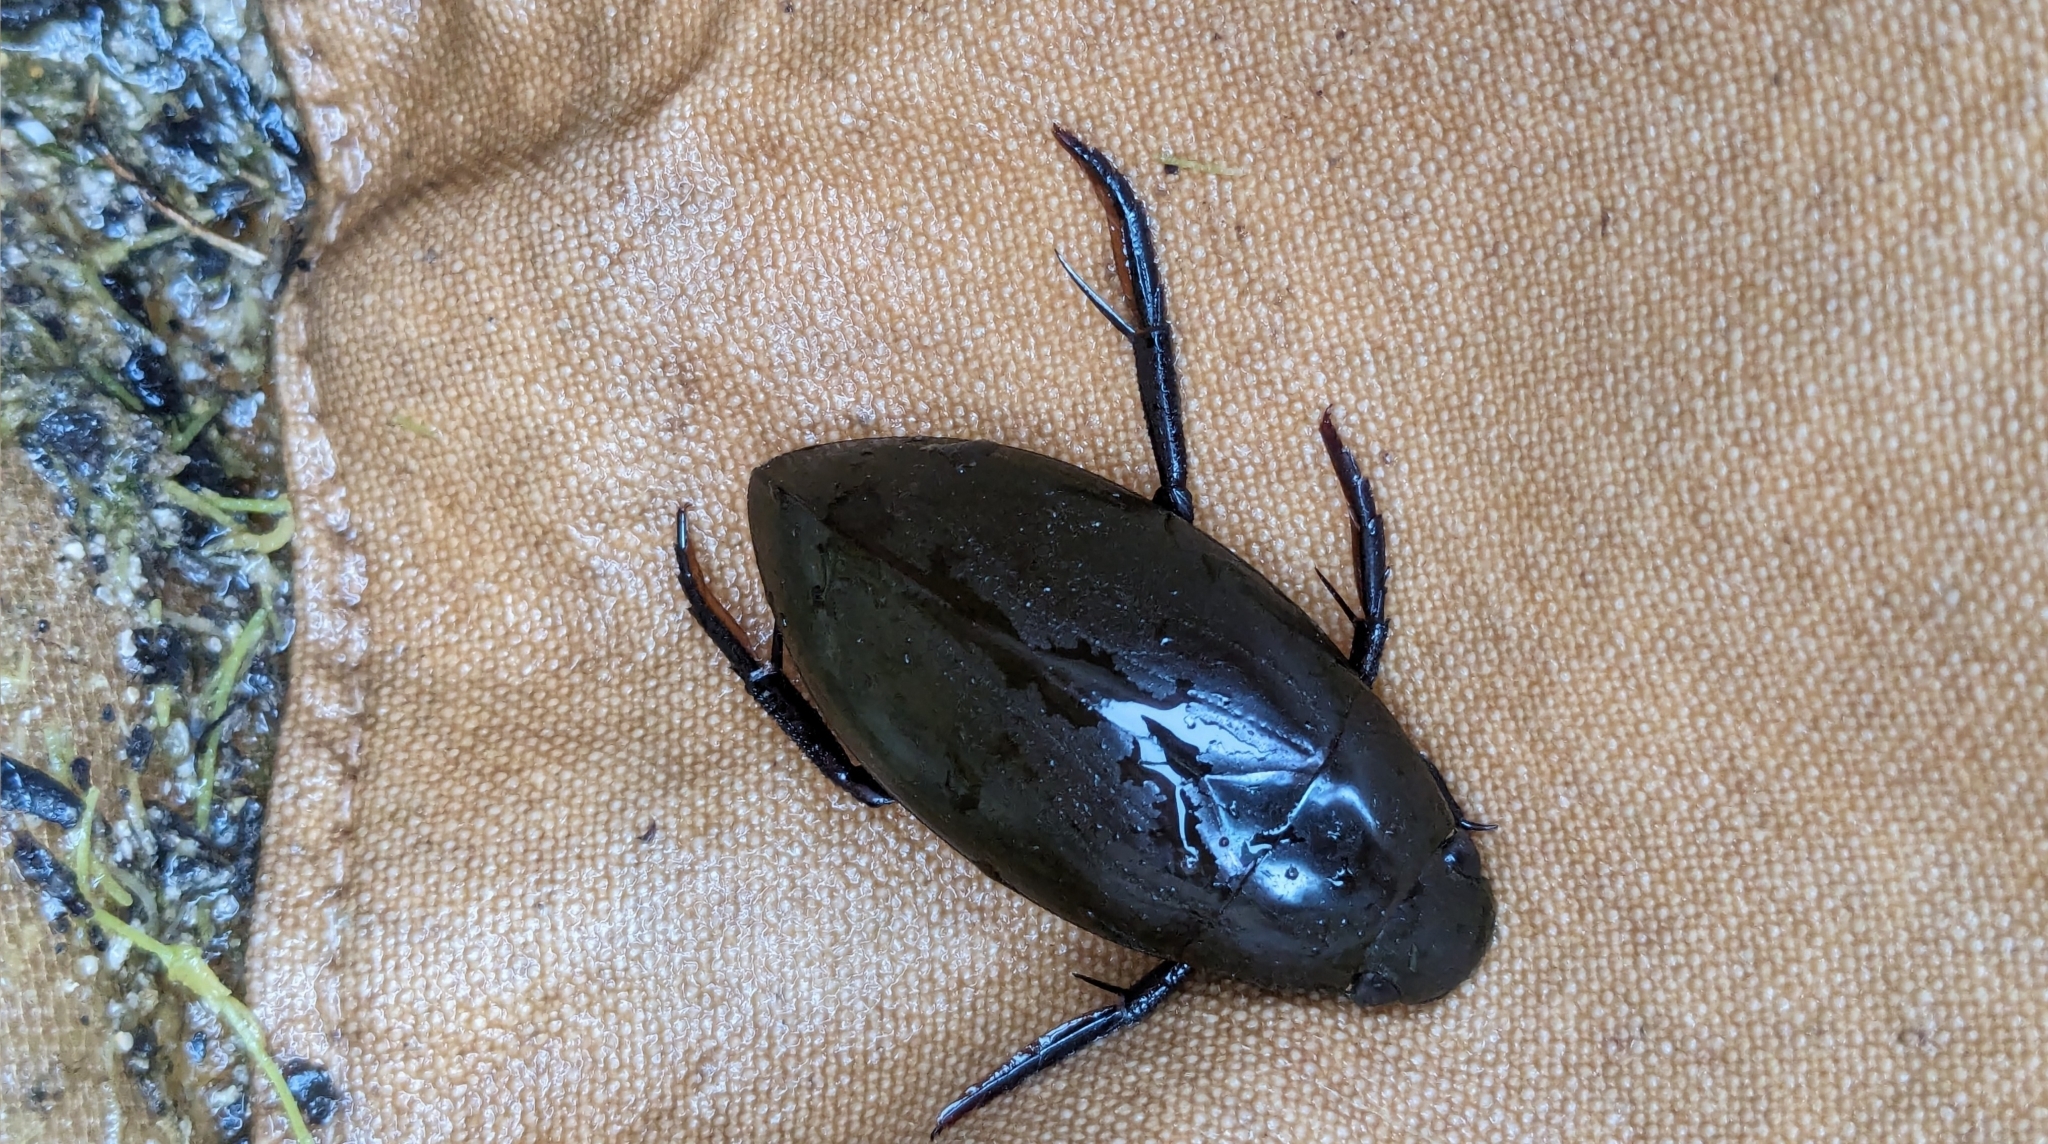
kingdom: Animalia
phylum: Arthropoda
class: Insecta
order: Coleoptera
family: Hydrophilidae
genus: Hydrophilus
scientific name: Hydrophilus triangularis
